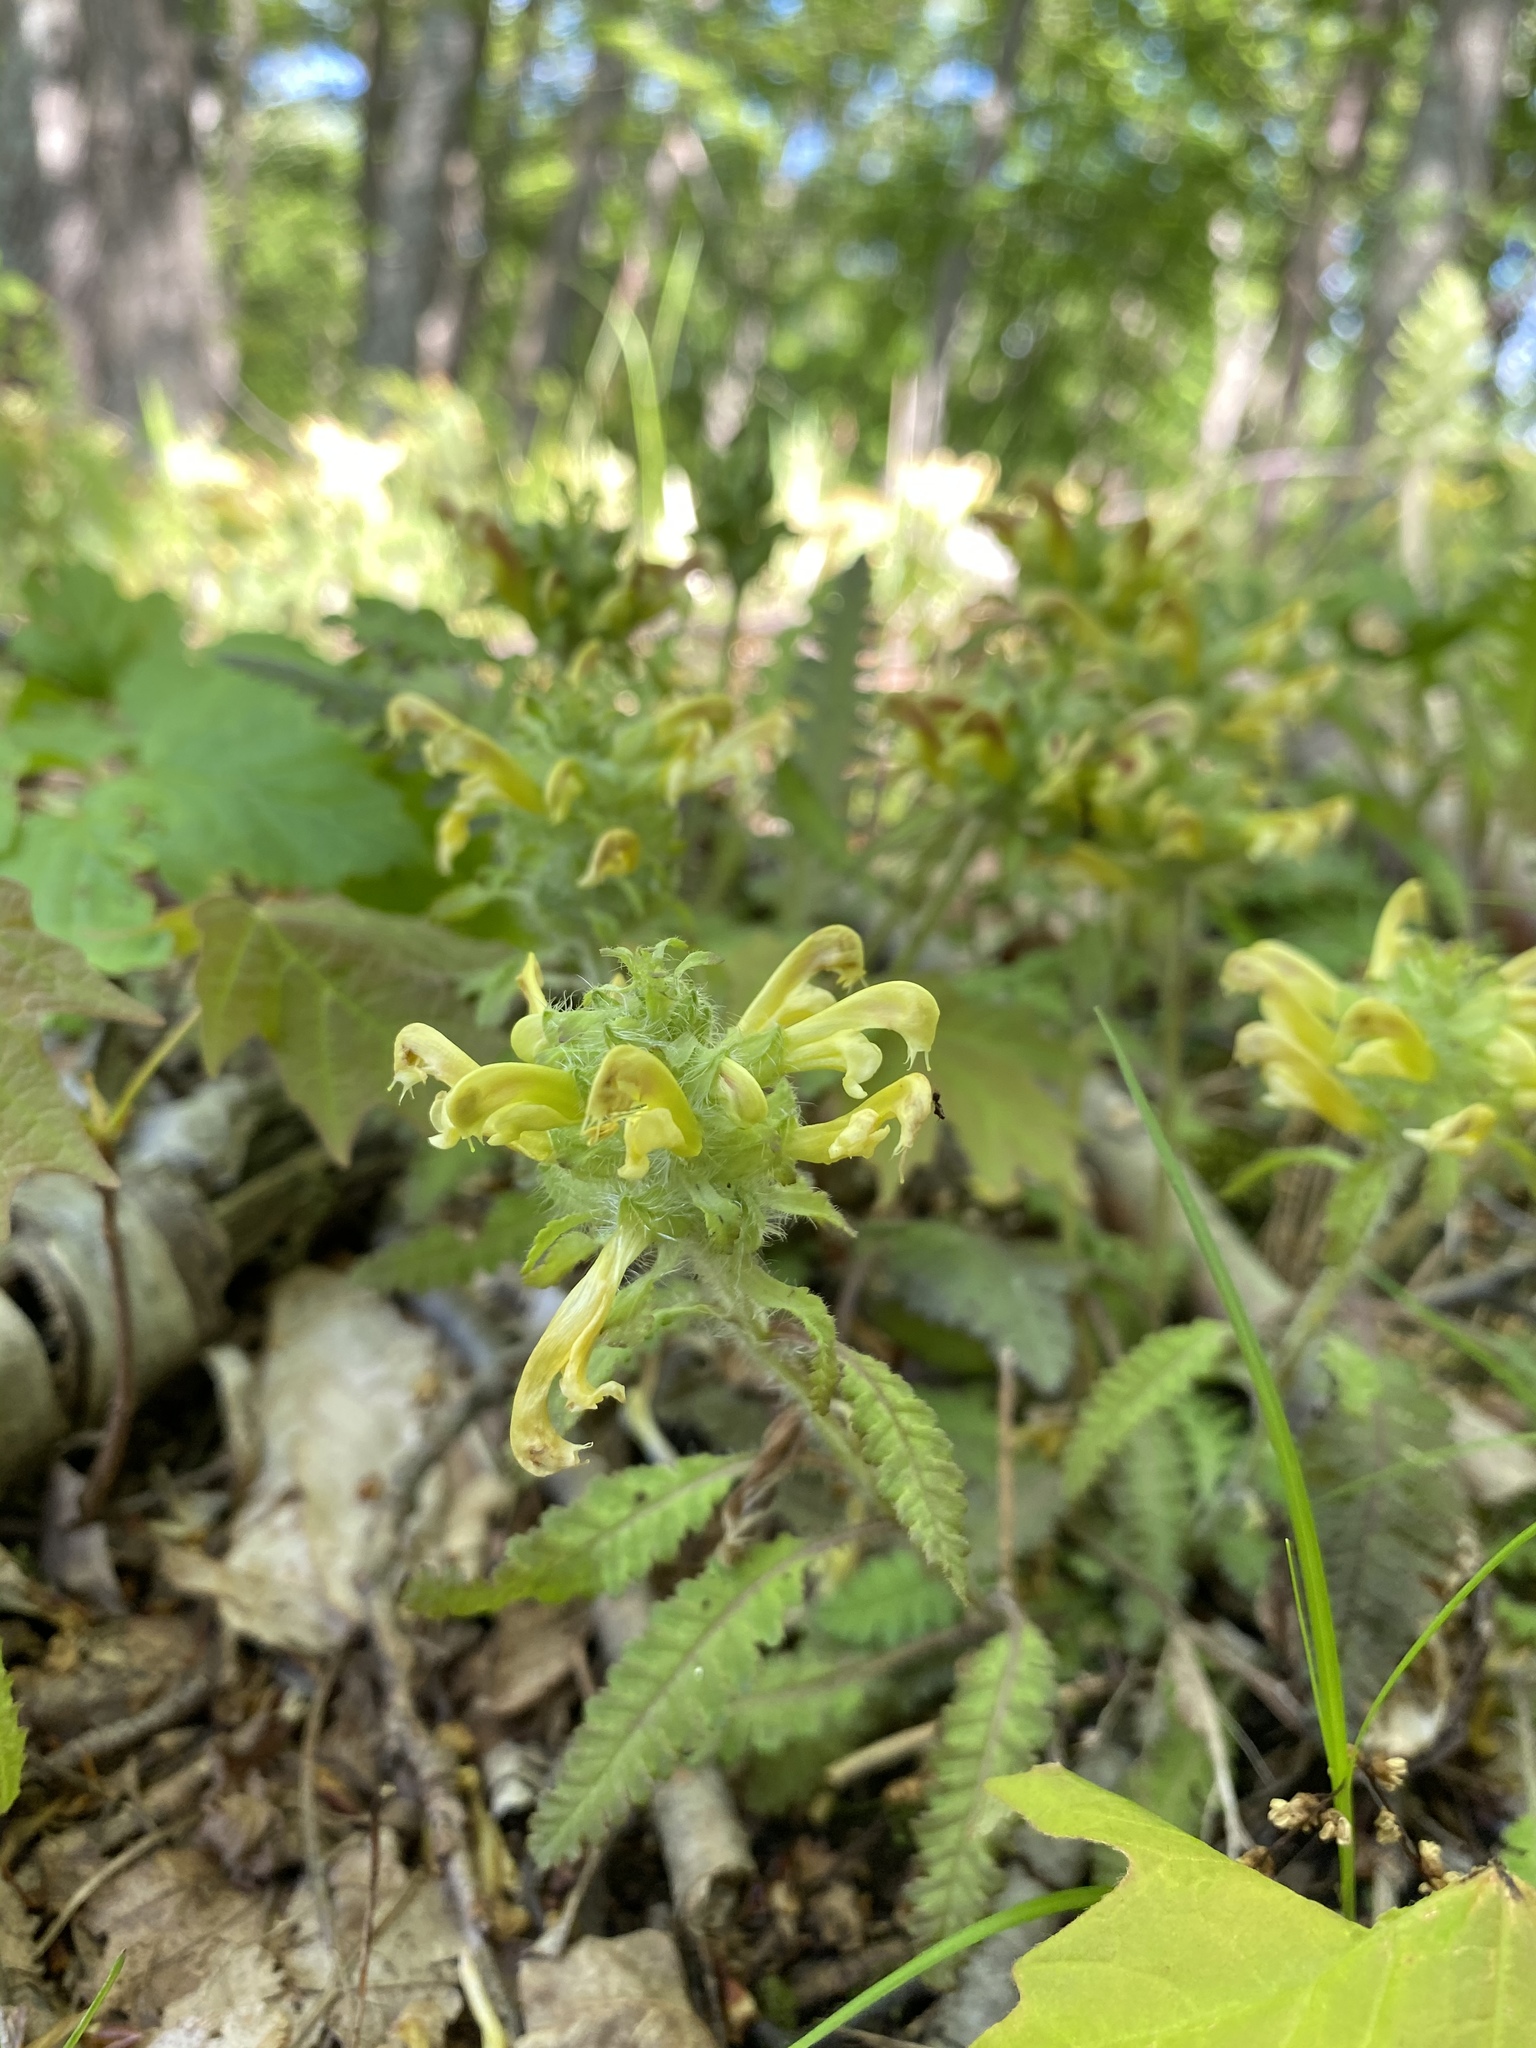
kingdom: Plantae
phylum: Tracheophyta
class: Magnoliopsida
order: Lamiales
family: Orobanchaceae
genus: Pedicularis
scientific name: Pedicularis canadensis
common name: Early lousewort
